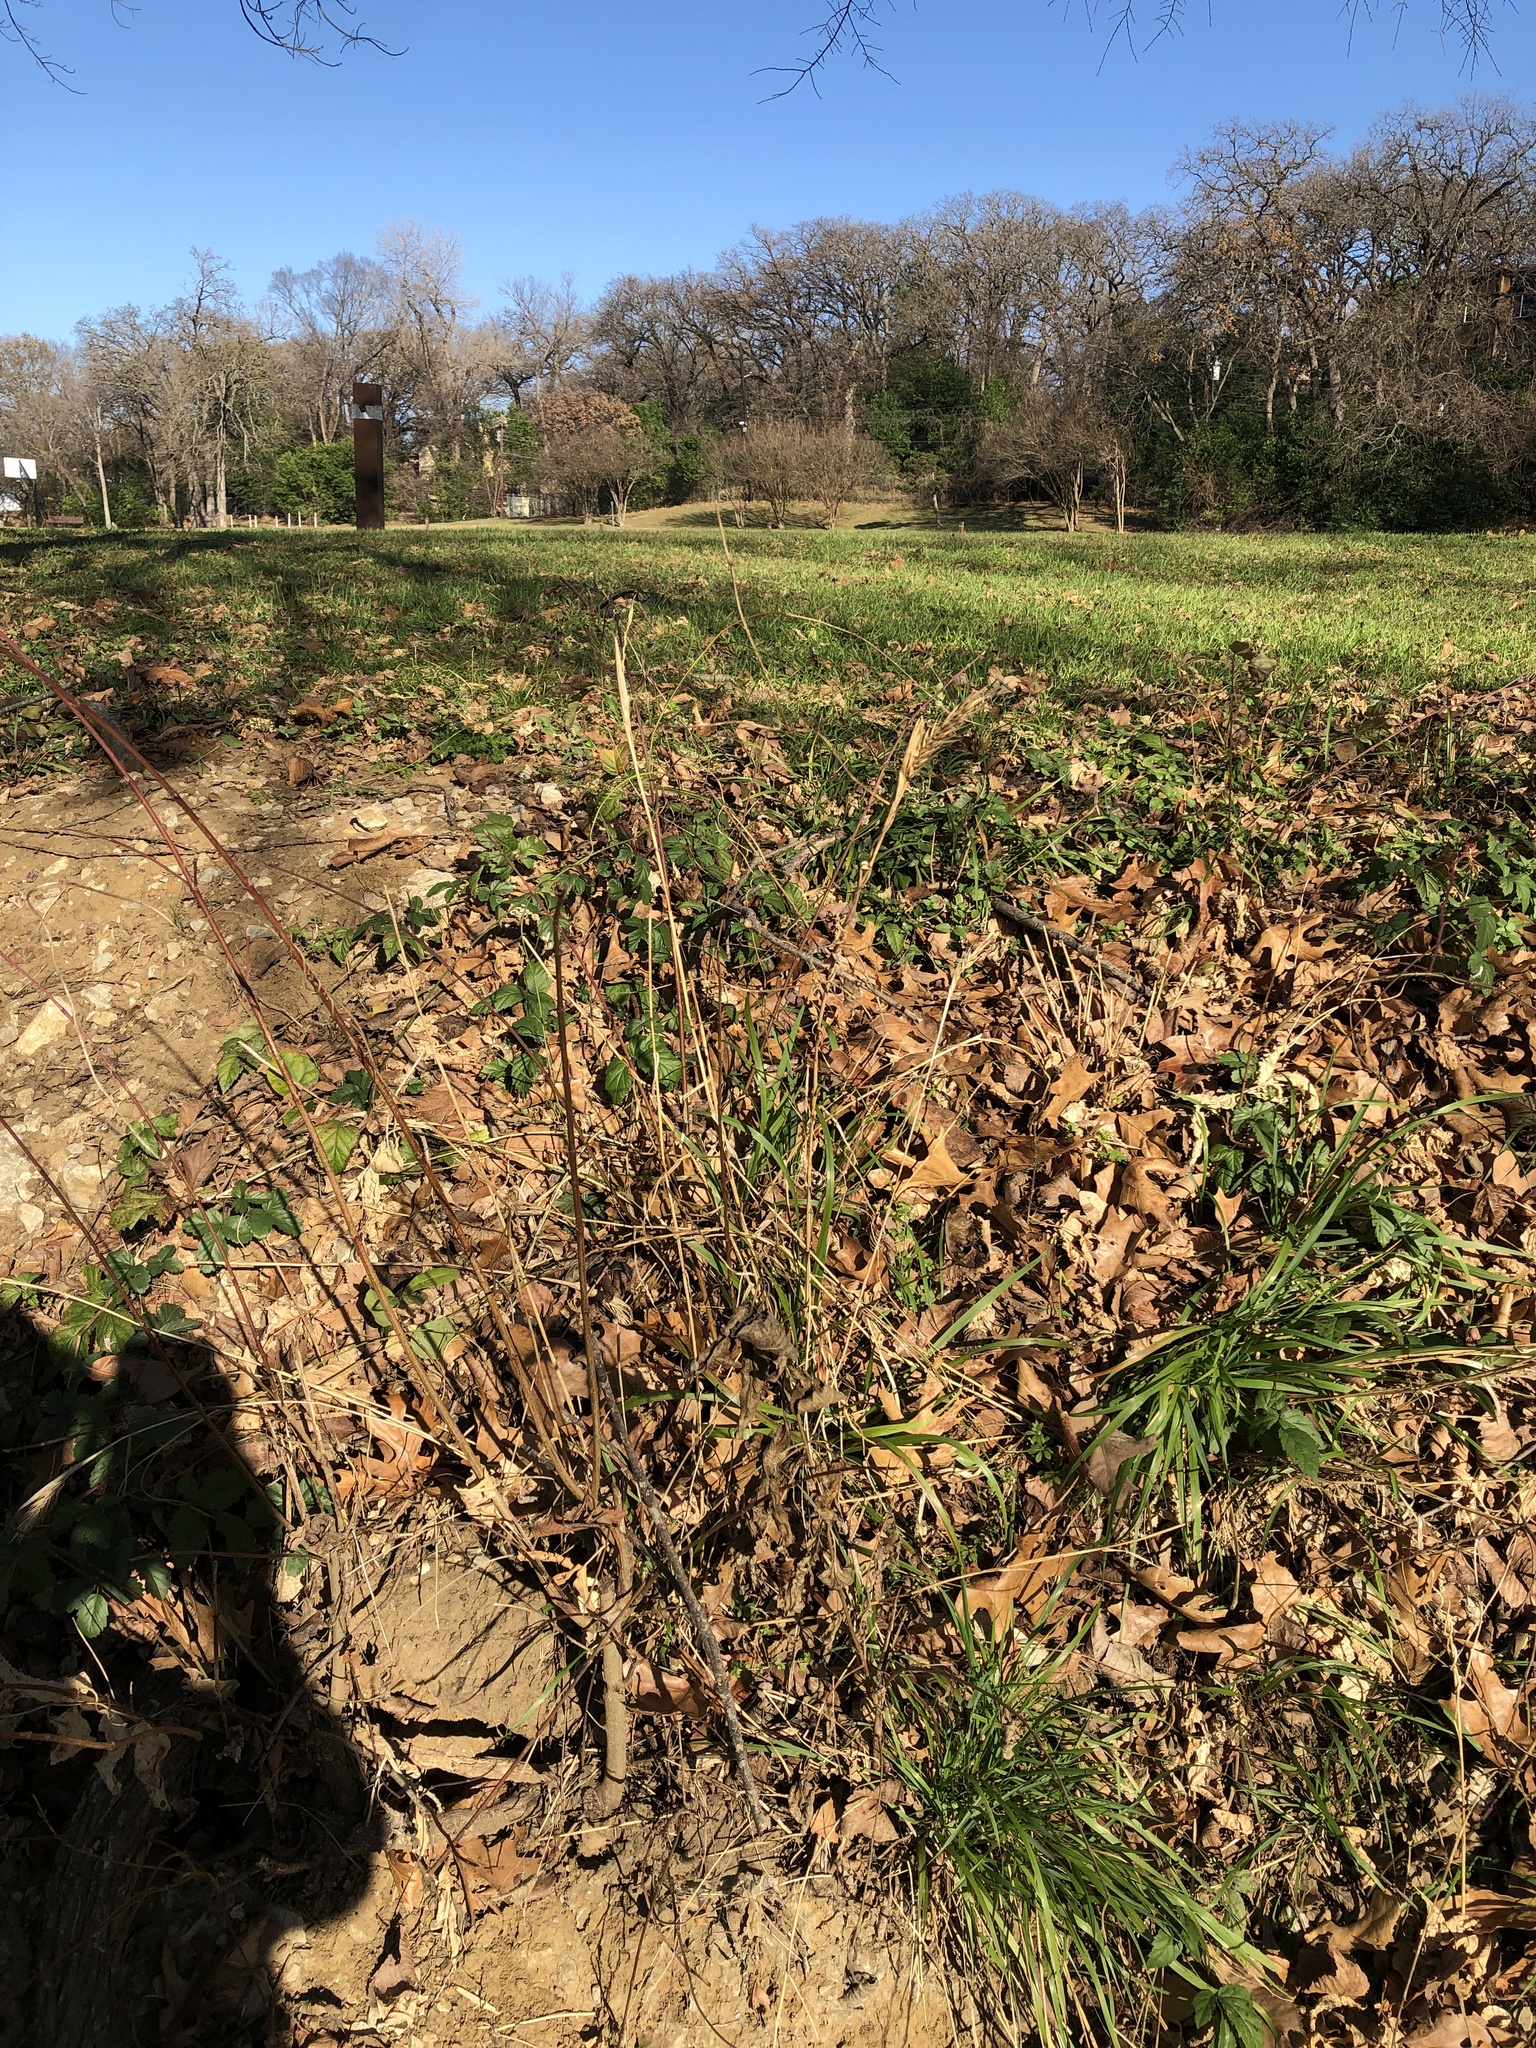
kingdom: Plantae
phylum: Tracheophyta
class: Liliopsida
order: Poales
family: Poaceae
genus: Elymus
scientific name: Elymus virginicus
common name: Common eastern wildrye
